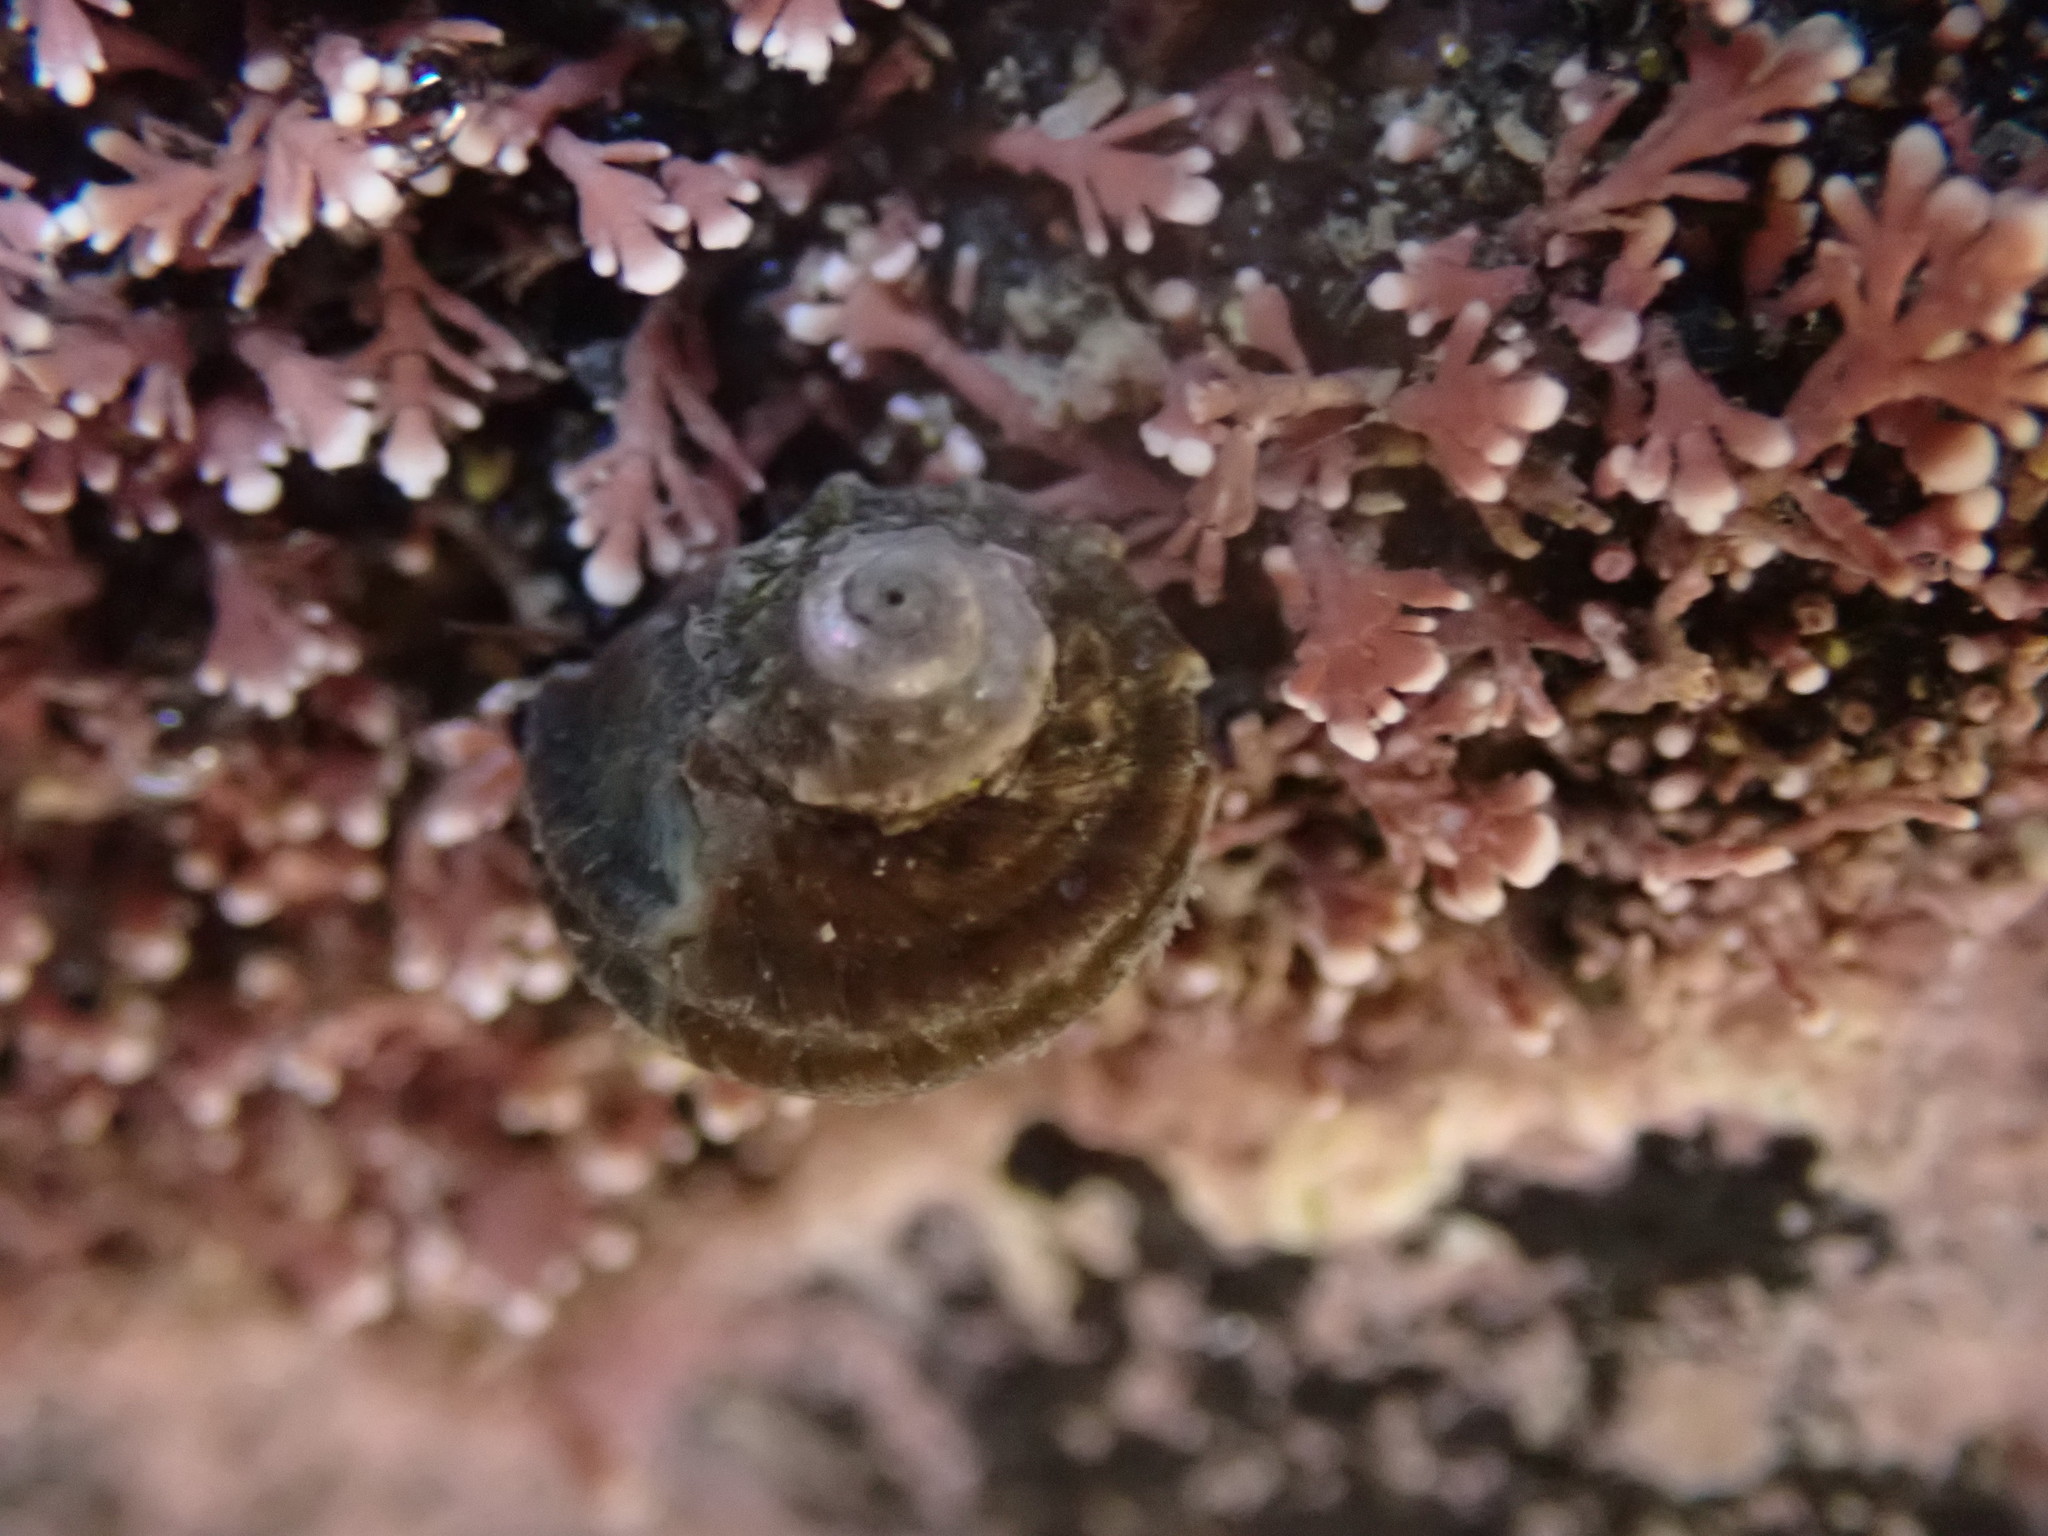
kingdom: Animalia
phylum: Mollusca
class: Gastropoda
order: Trochida
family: Turbinidae
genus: Lunella
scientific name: Lunella smaragda
